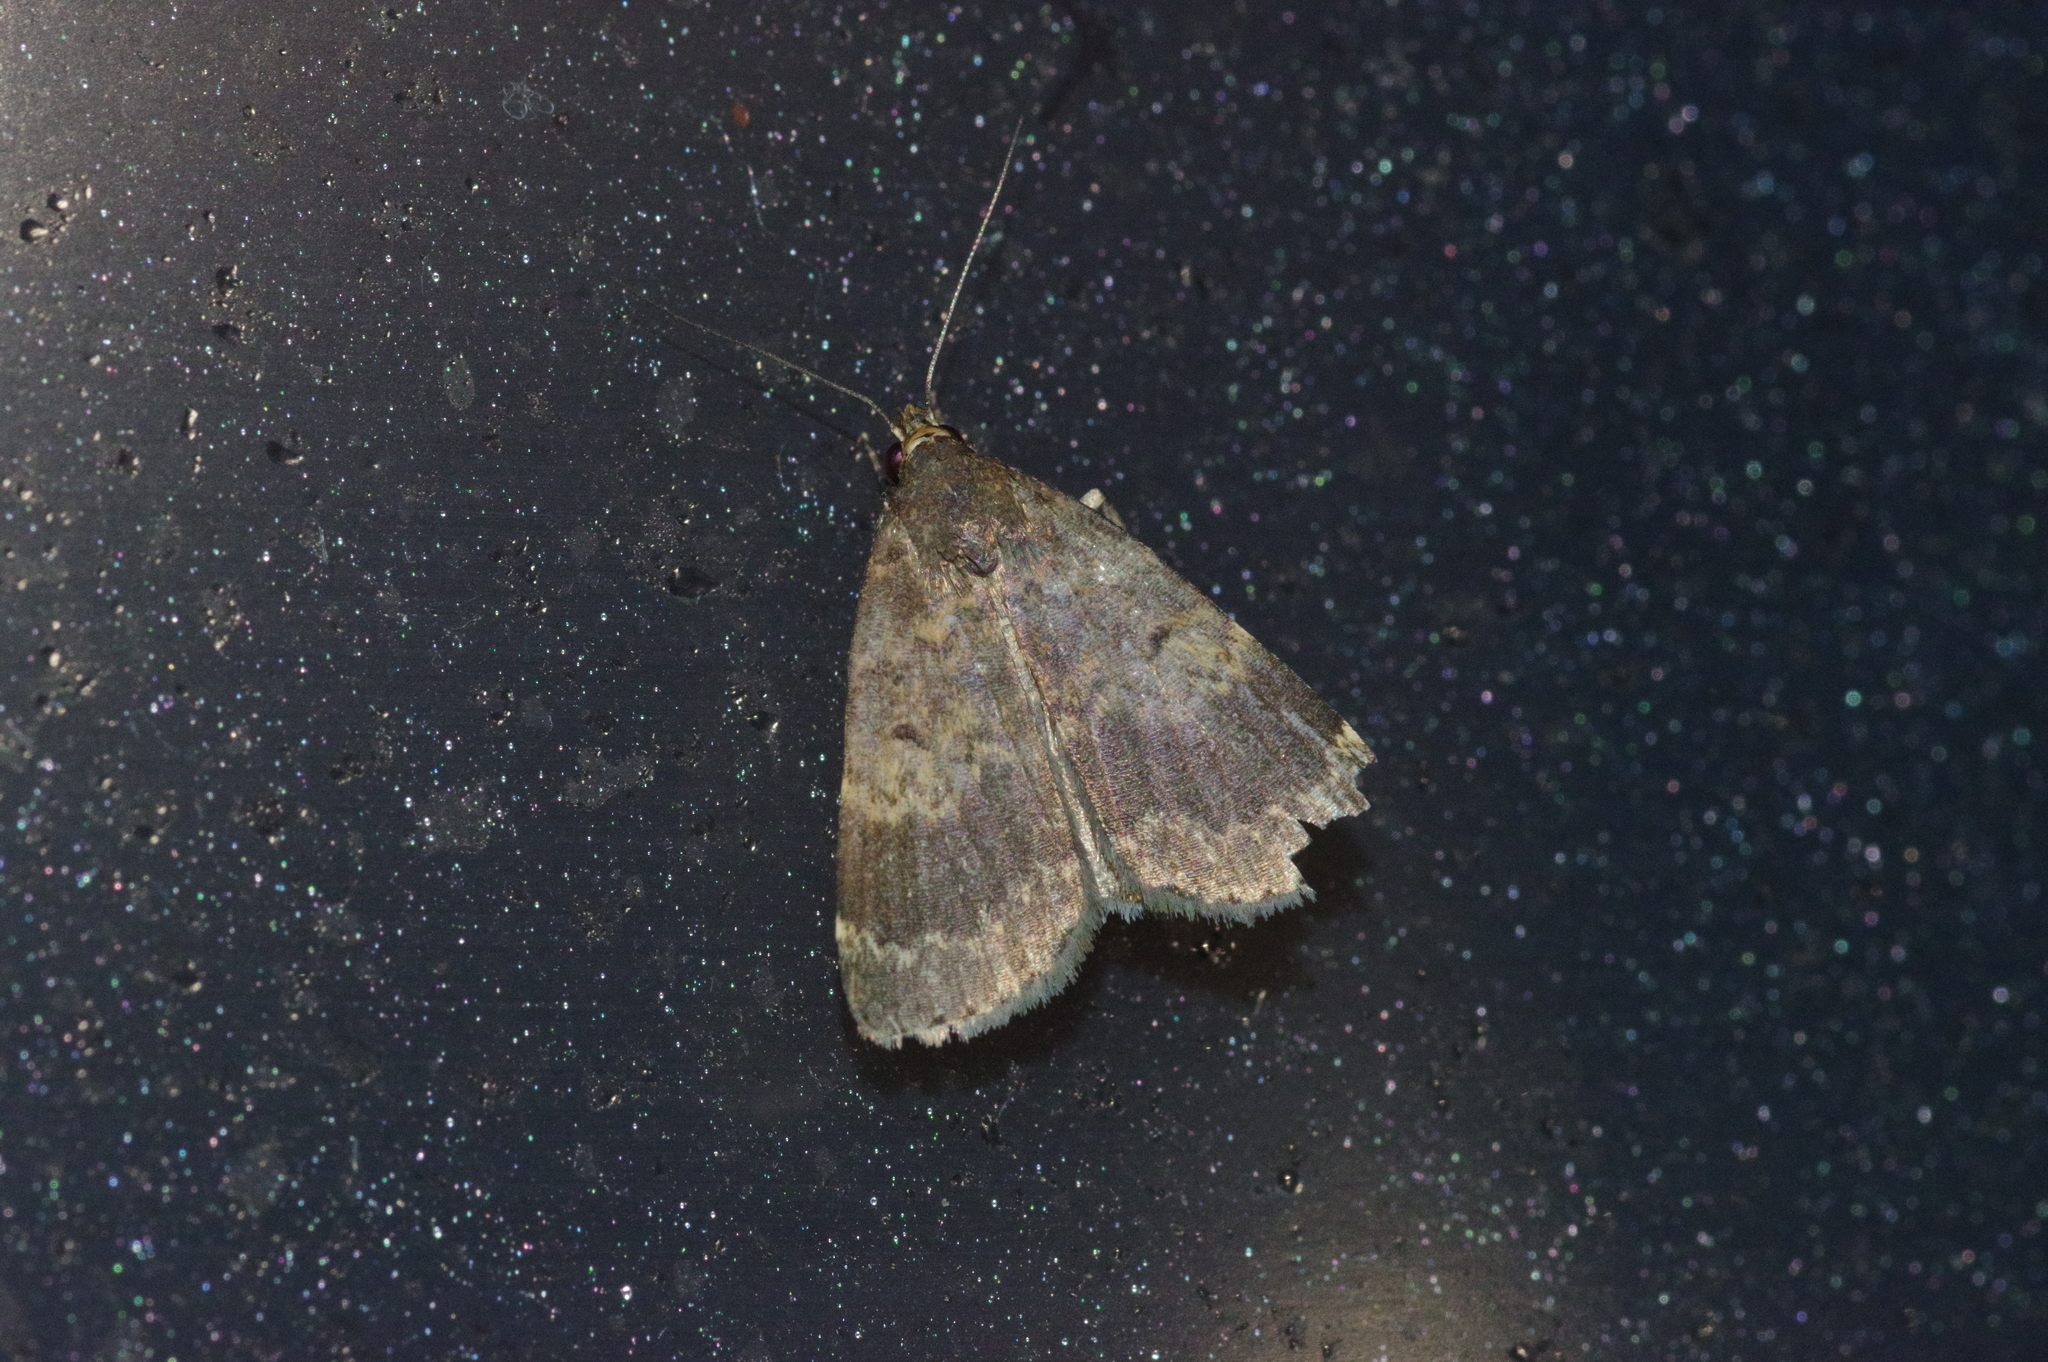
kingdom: Animalia
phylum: Arthropoda
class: Insecta
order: Lepidoptera
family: Erebidae
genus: Hydrillodes
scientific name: Hydrillodes lentalis
